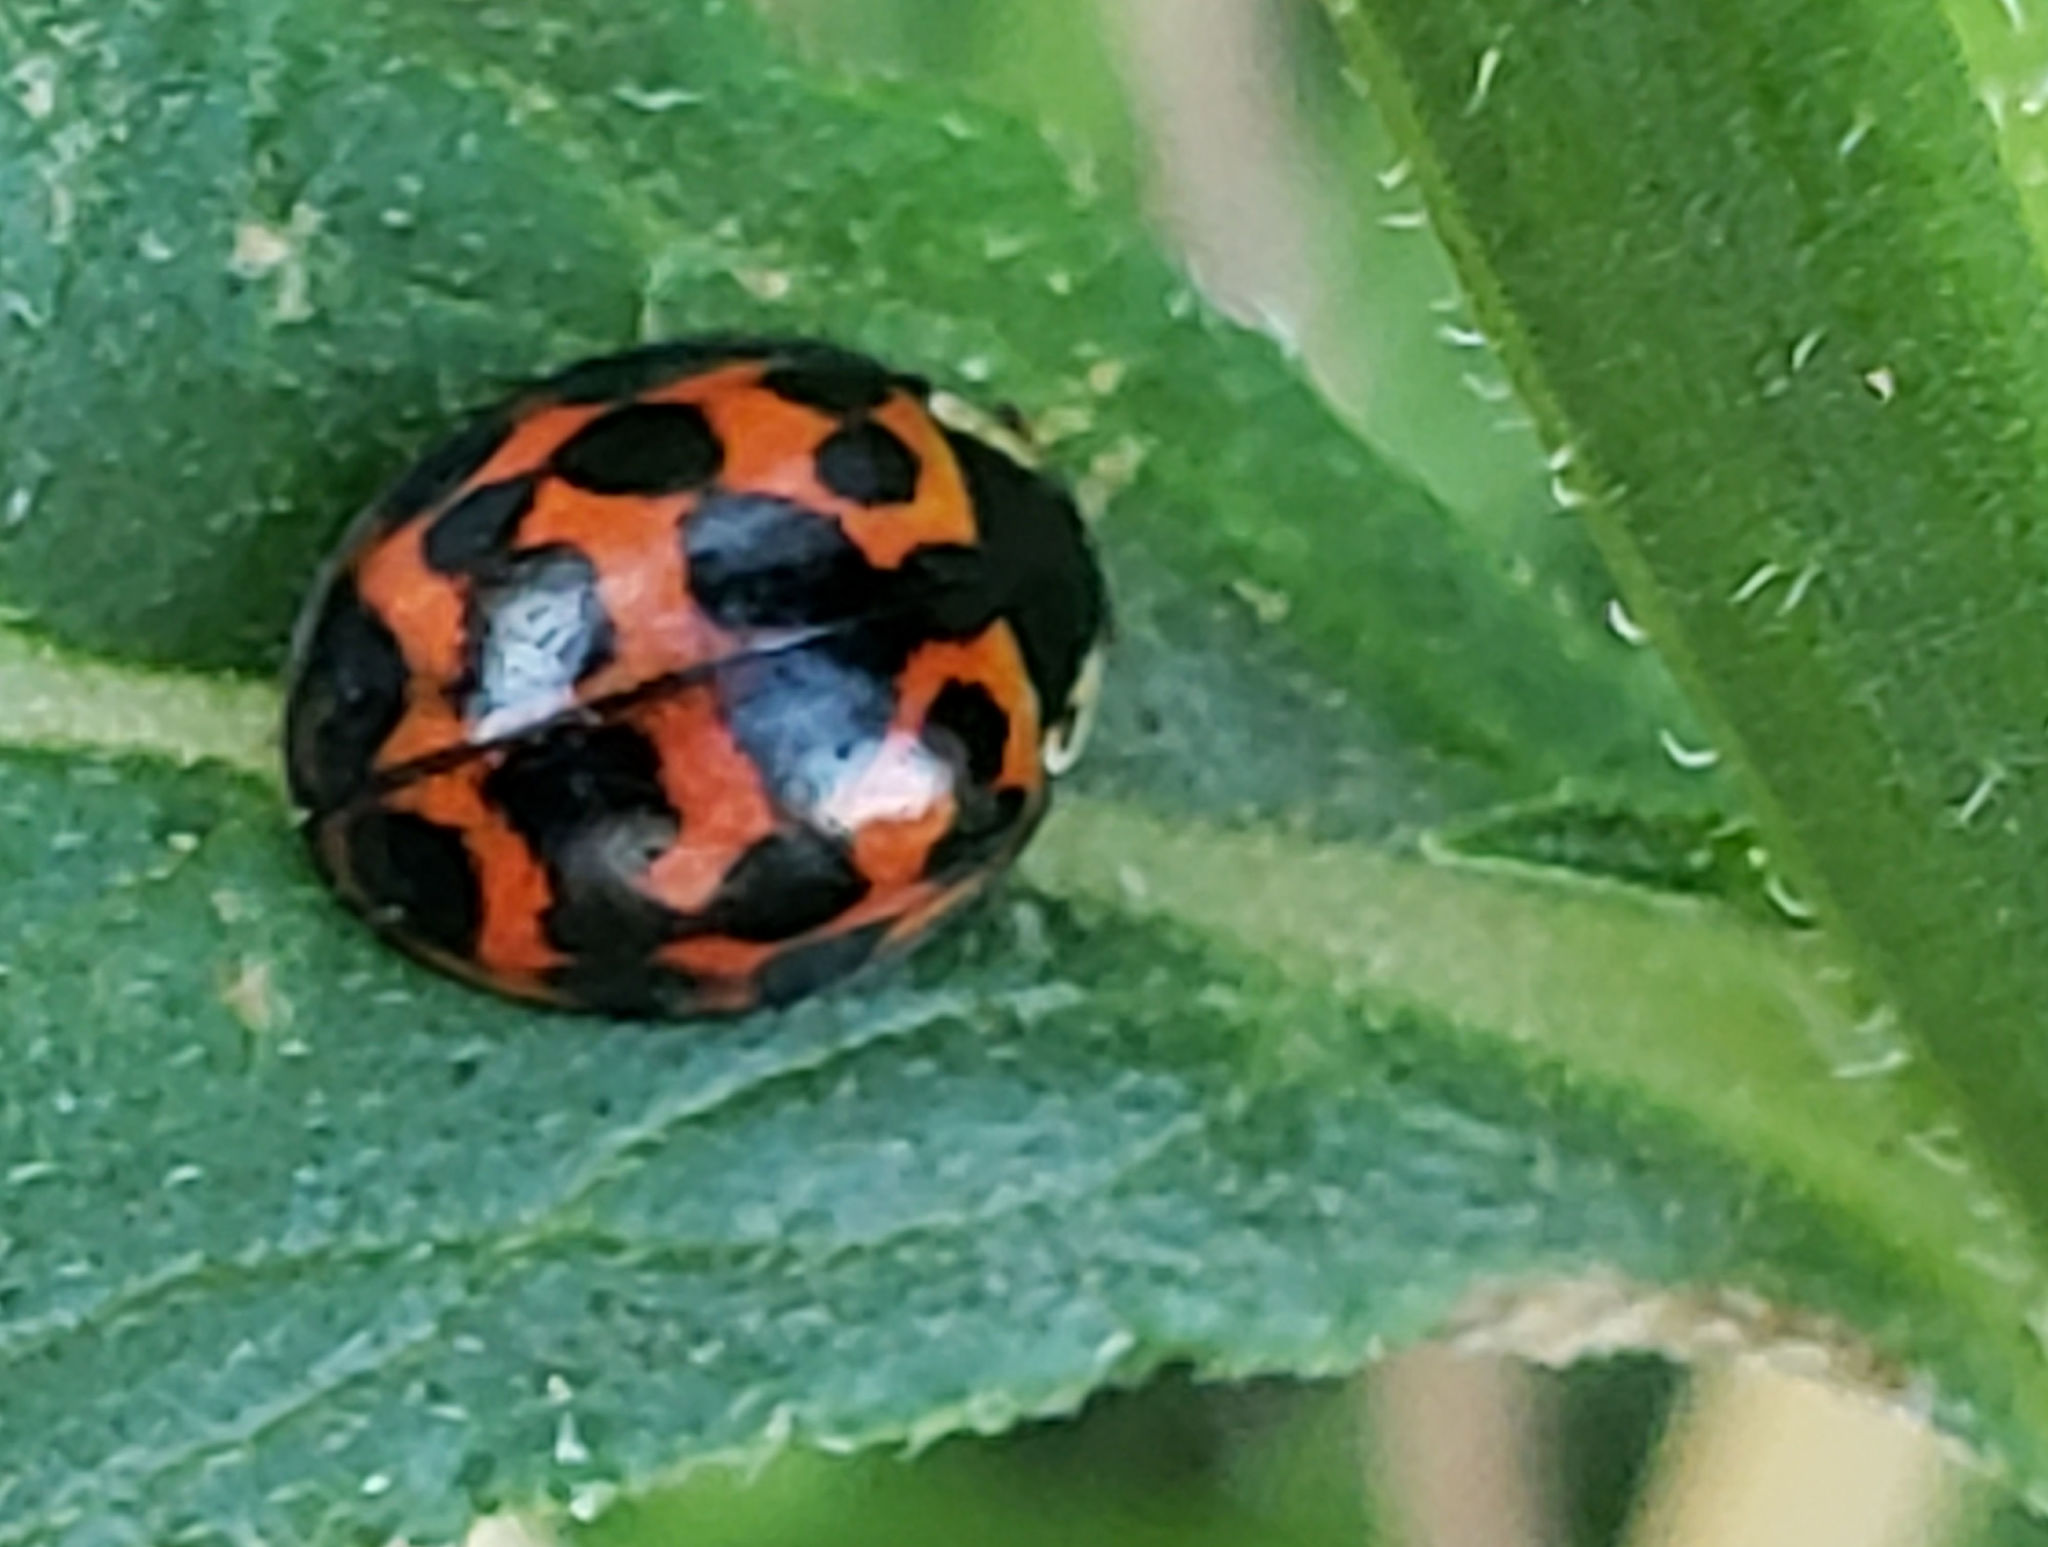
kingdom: Animalia
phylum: Arthropoda
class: Insecta
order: Coleoptera
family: Coccinellidae
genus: Harmonia
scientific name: Harmonia axyridis
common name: Harlequin ladybird
